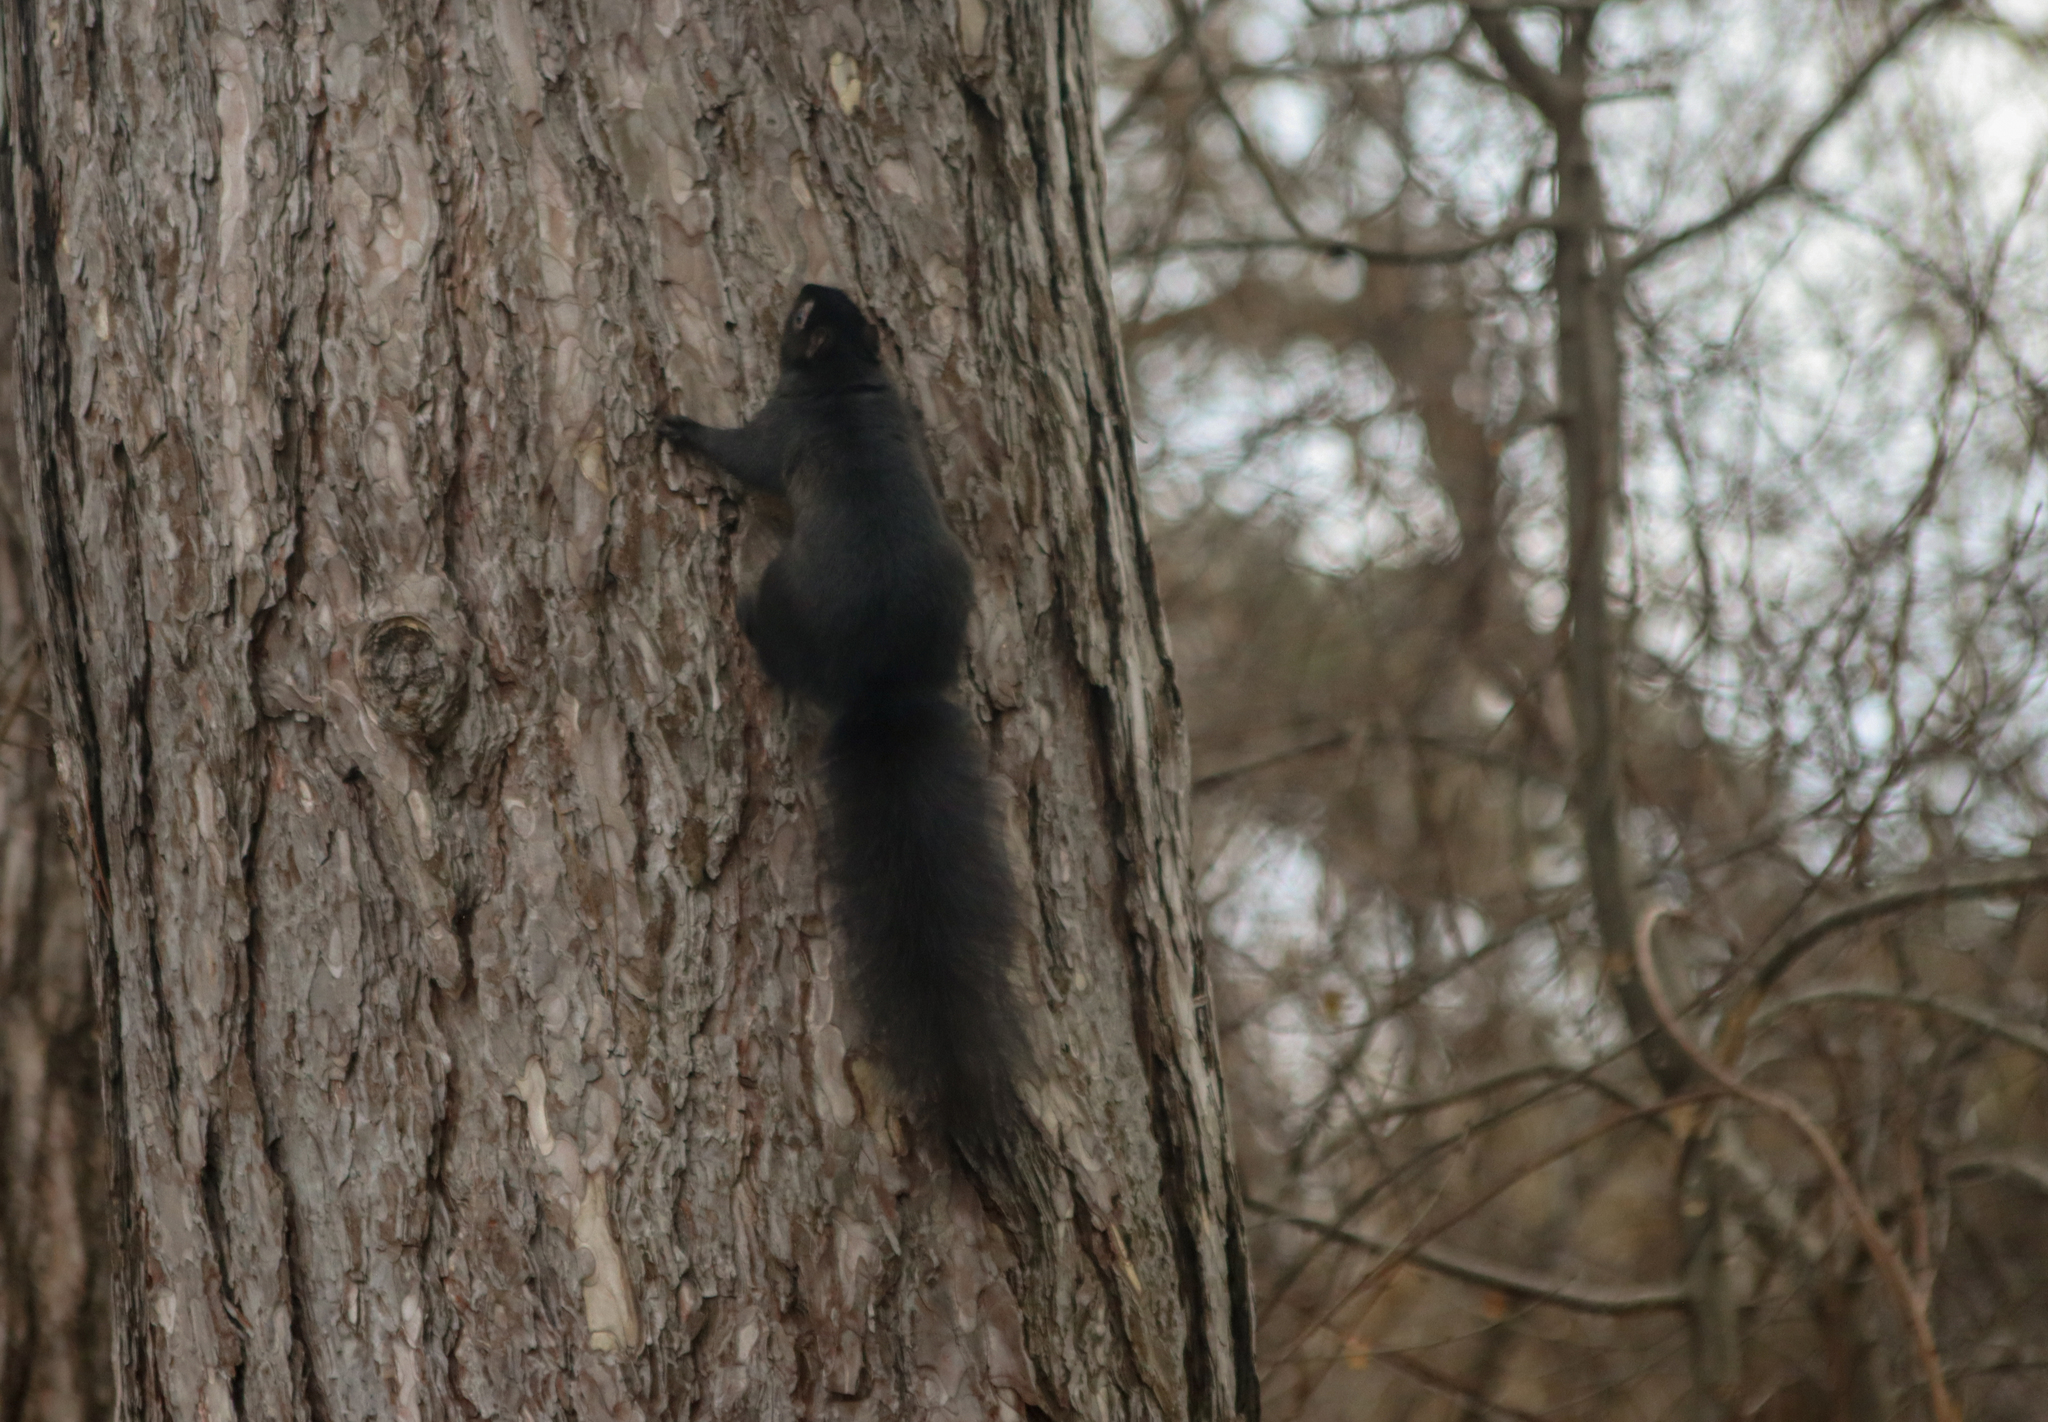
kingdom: Animalia
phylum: Chordata
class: Mammalia
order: Rodentia
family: Sciuridae
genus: Sciurus
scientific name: Sciurus carolinensis
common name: Eastern gray squirrel
